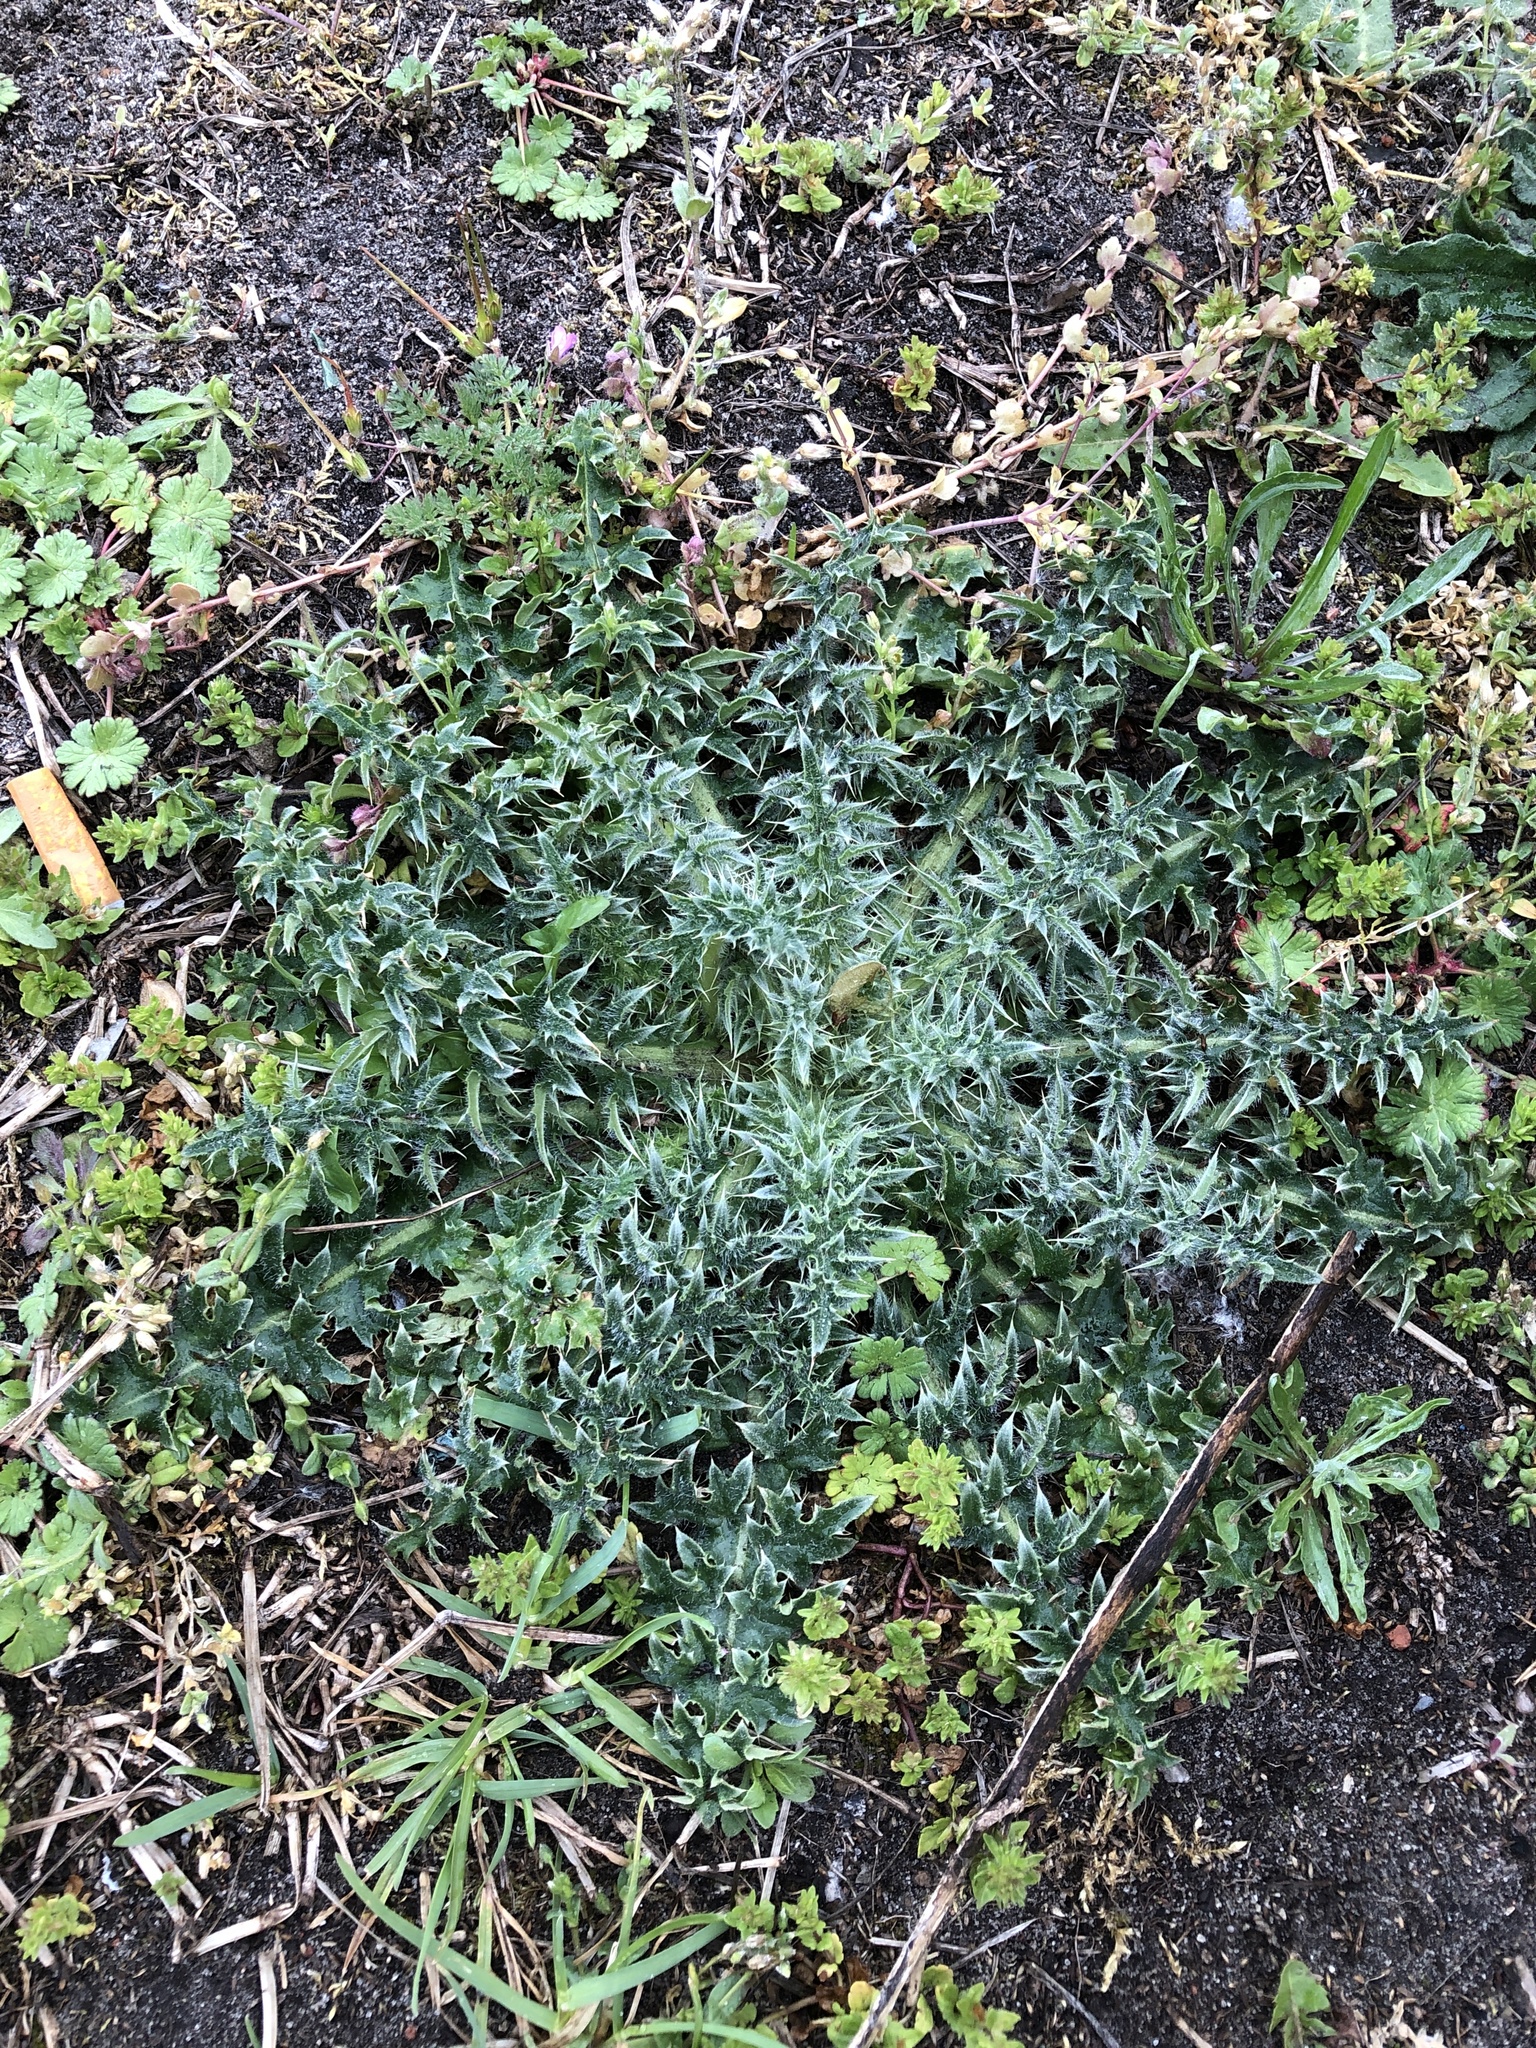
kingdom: Plantae
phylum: Tracheophyta
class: Magnoliopsida
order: Asterales
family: Asteraceae
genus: Cirsium
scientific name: Cirsium vulgare
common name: Bull thistle
